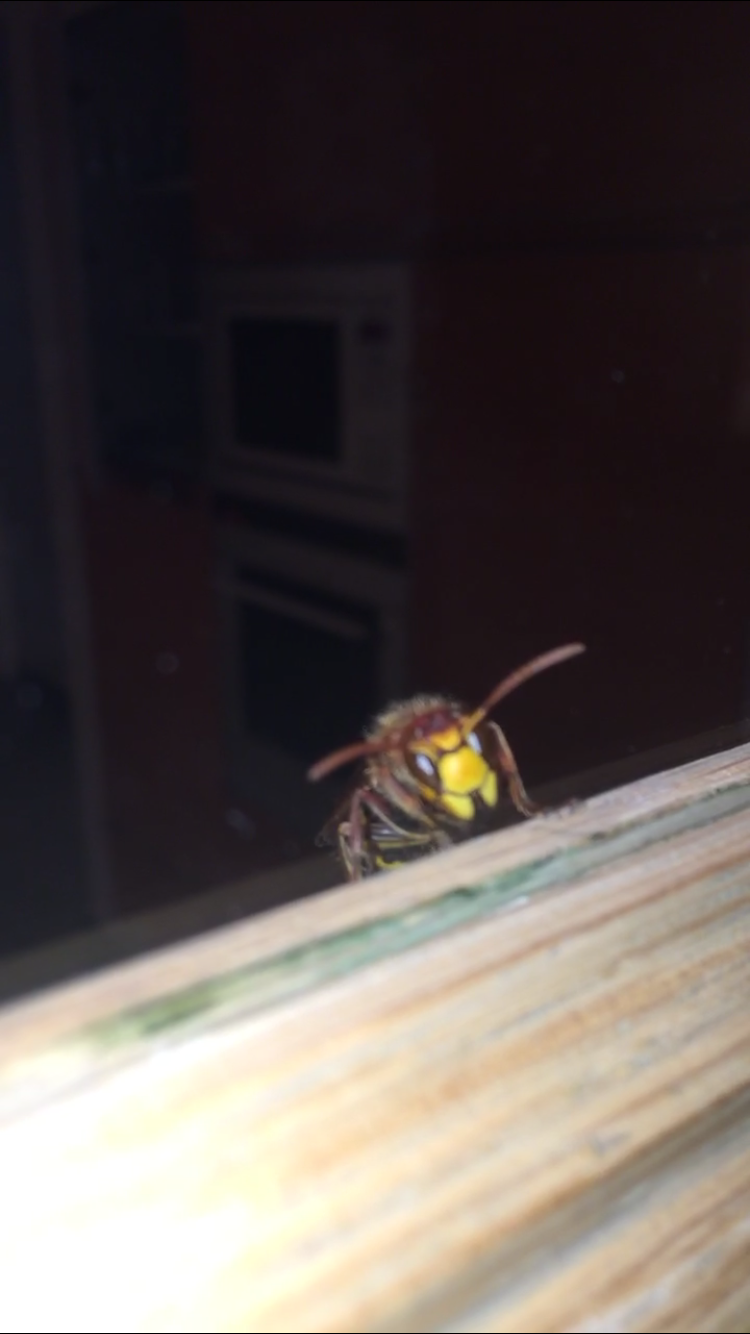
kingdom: Animalia
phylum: Arthropoda
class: Insecta
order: Hymenoptera
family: Vespidae
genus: Vespa
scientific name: Vespa crabro
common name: Hornet
